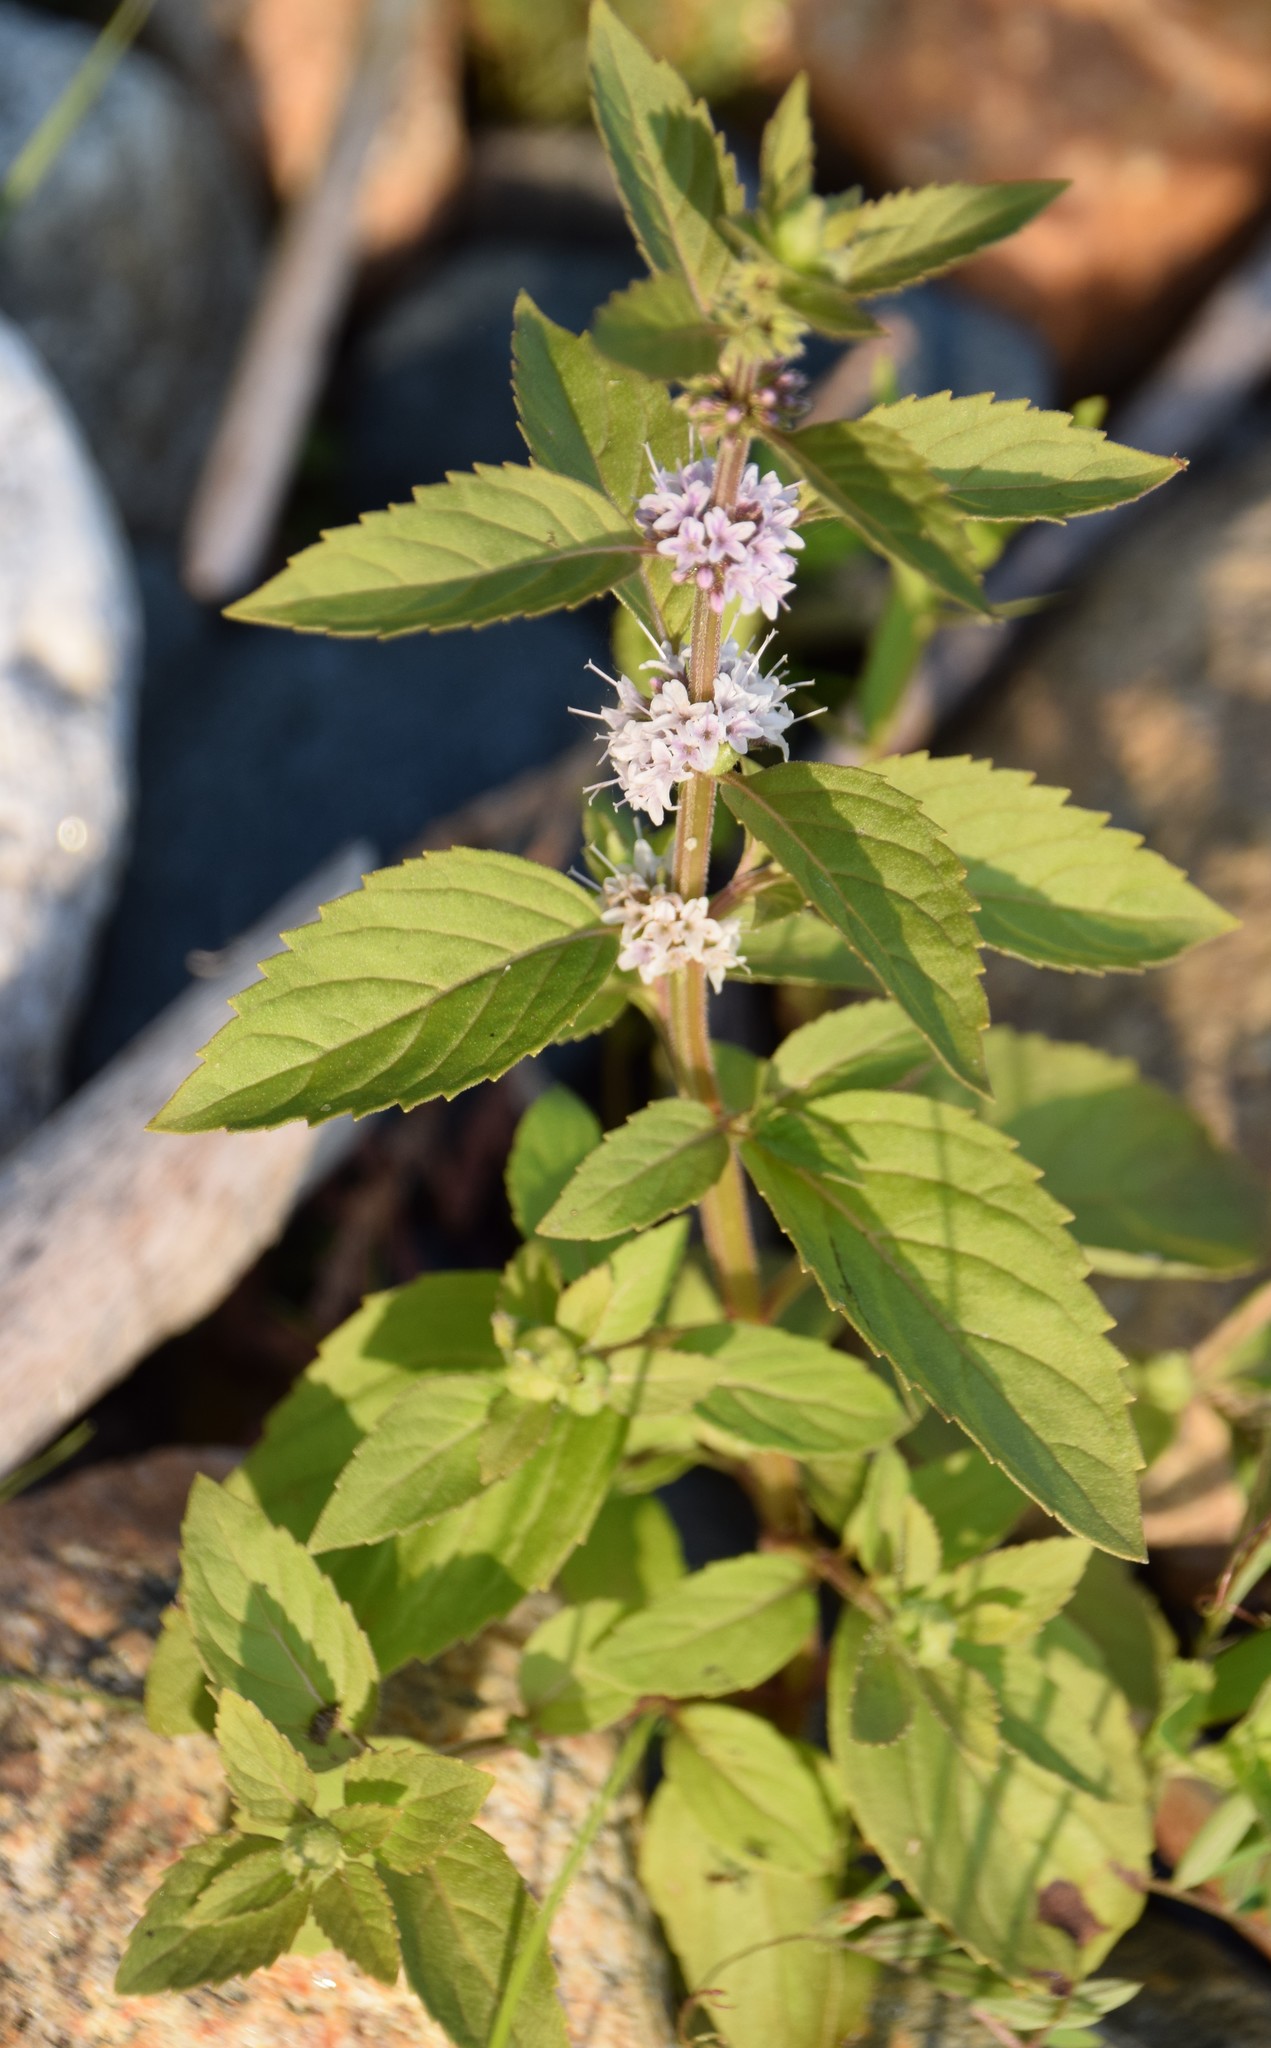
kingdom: Plantae
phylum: Tracheophyta
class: Magnoliopsida
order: Lamiales
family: Lamiaceae
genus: Mentha
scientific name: Mentha canadensis
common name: American corn mint
